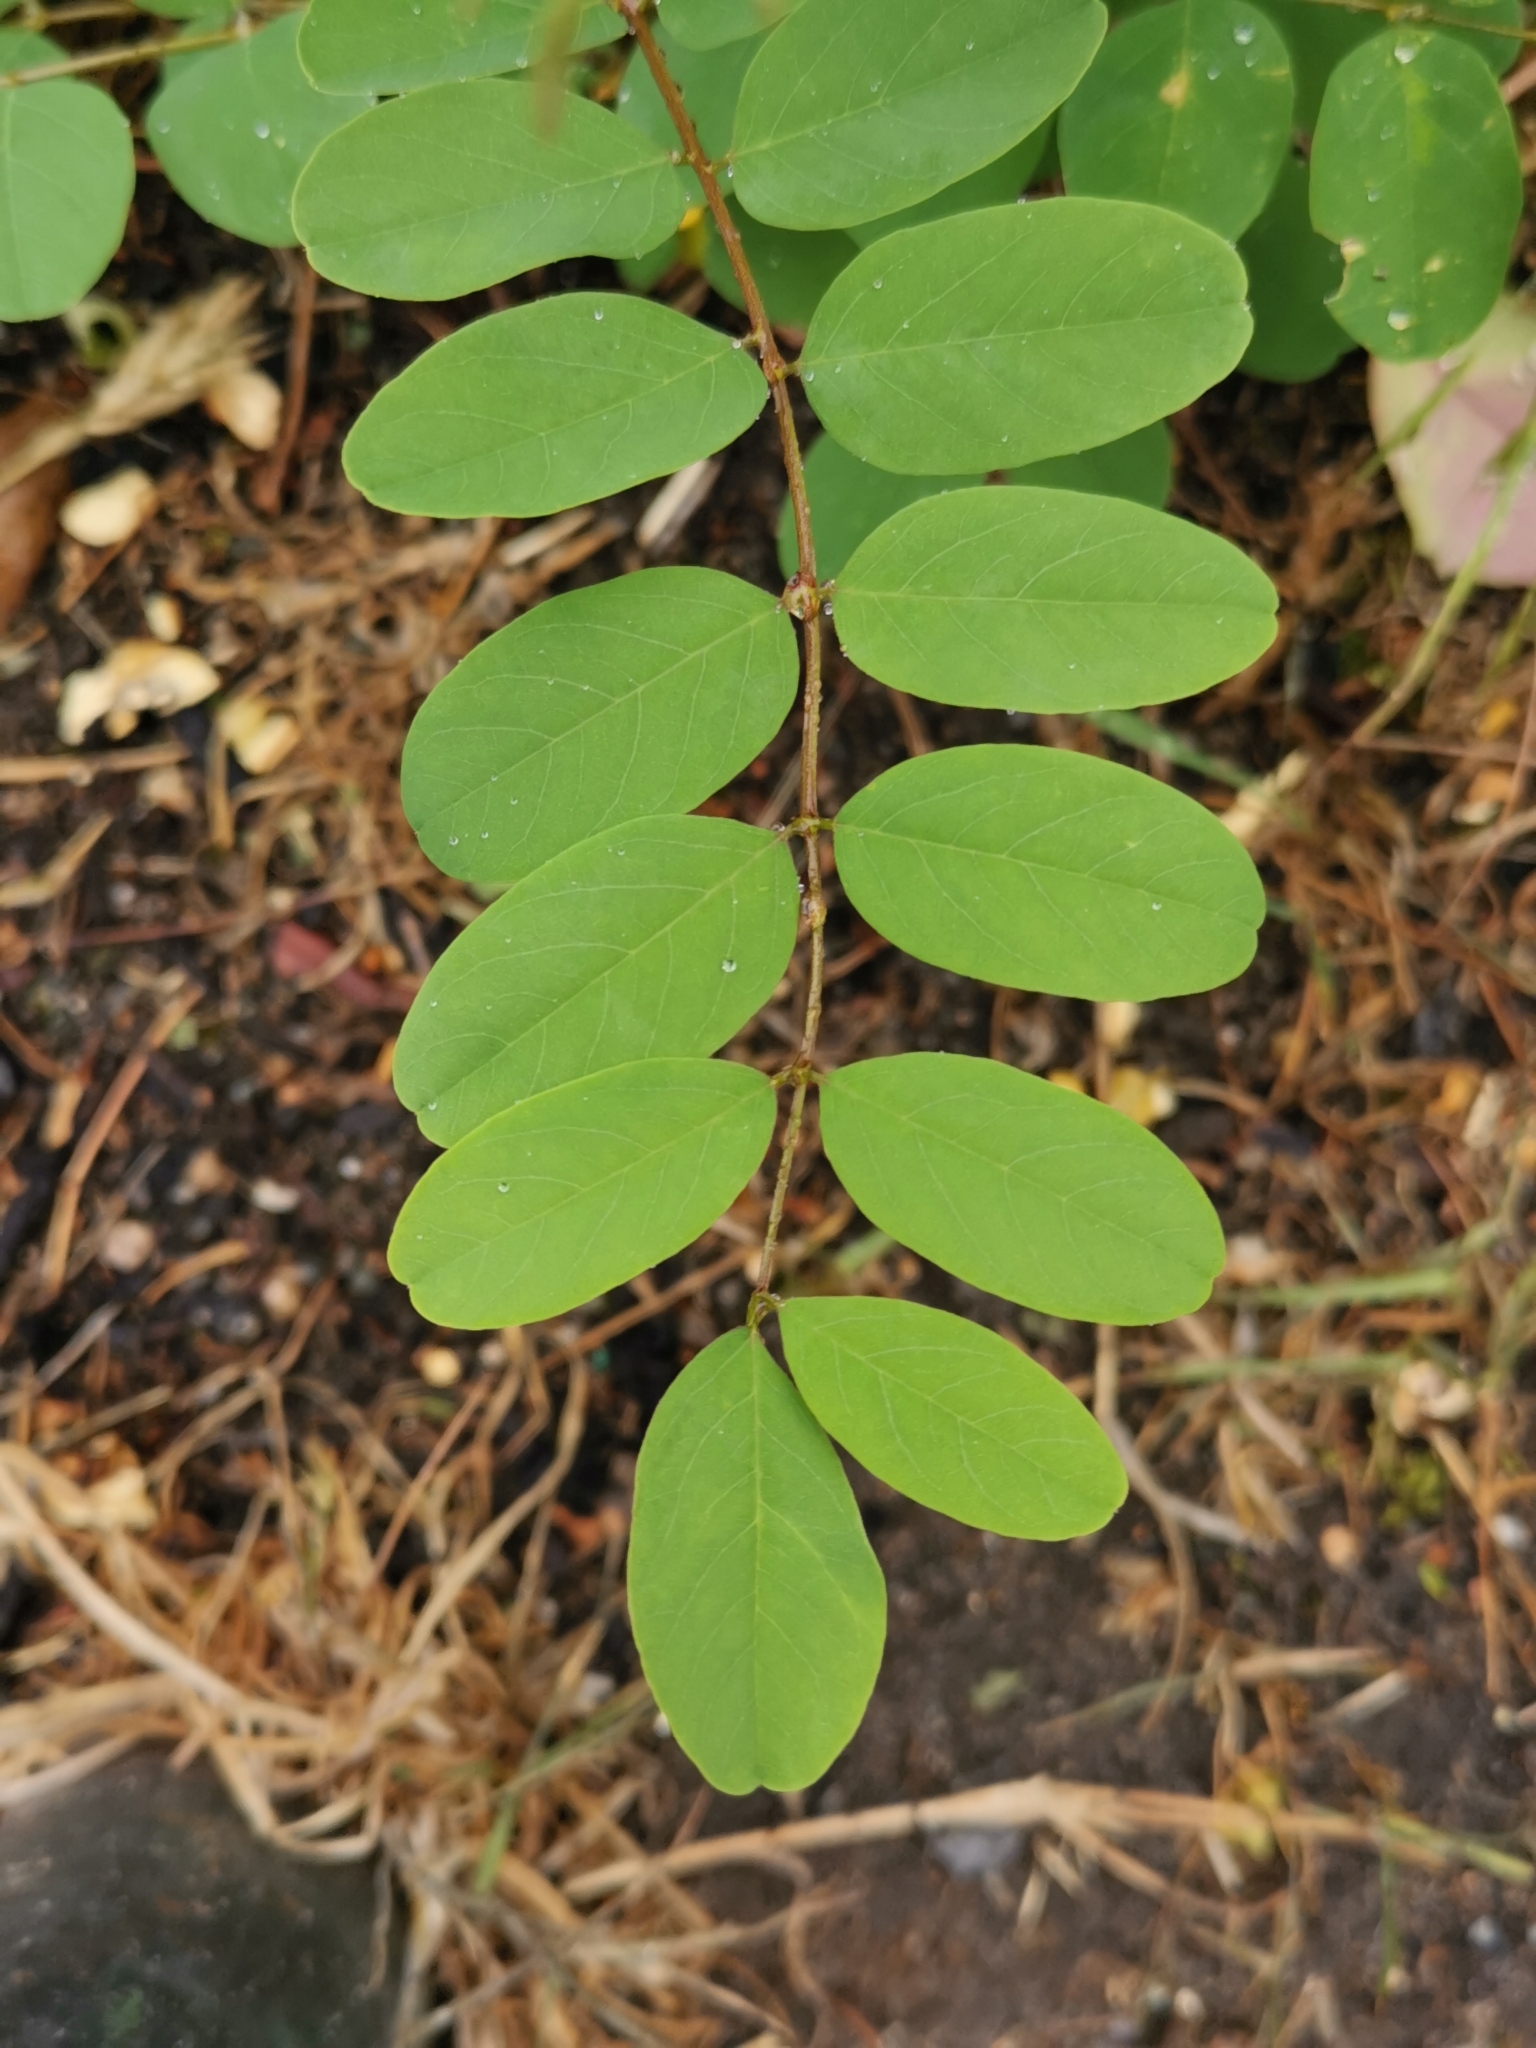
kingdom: Plantae
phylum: Tracheophyta
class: Magnoliopsida
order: Fabales
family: Fabaceae
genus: Robinia
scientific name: Robinia pseudoacacia
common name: Black locust
